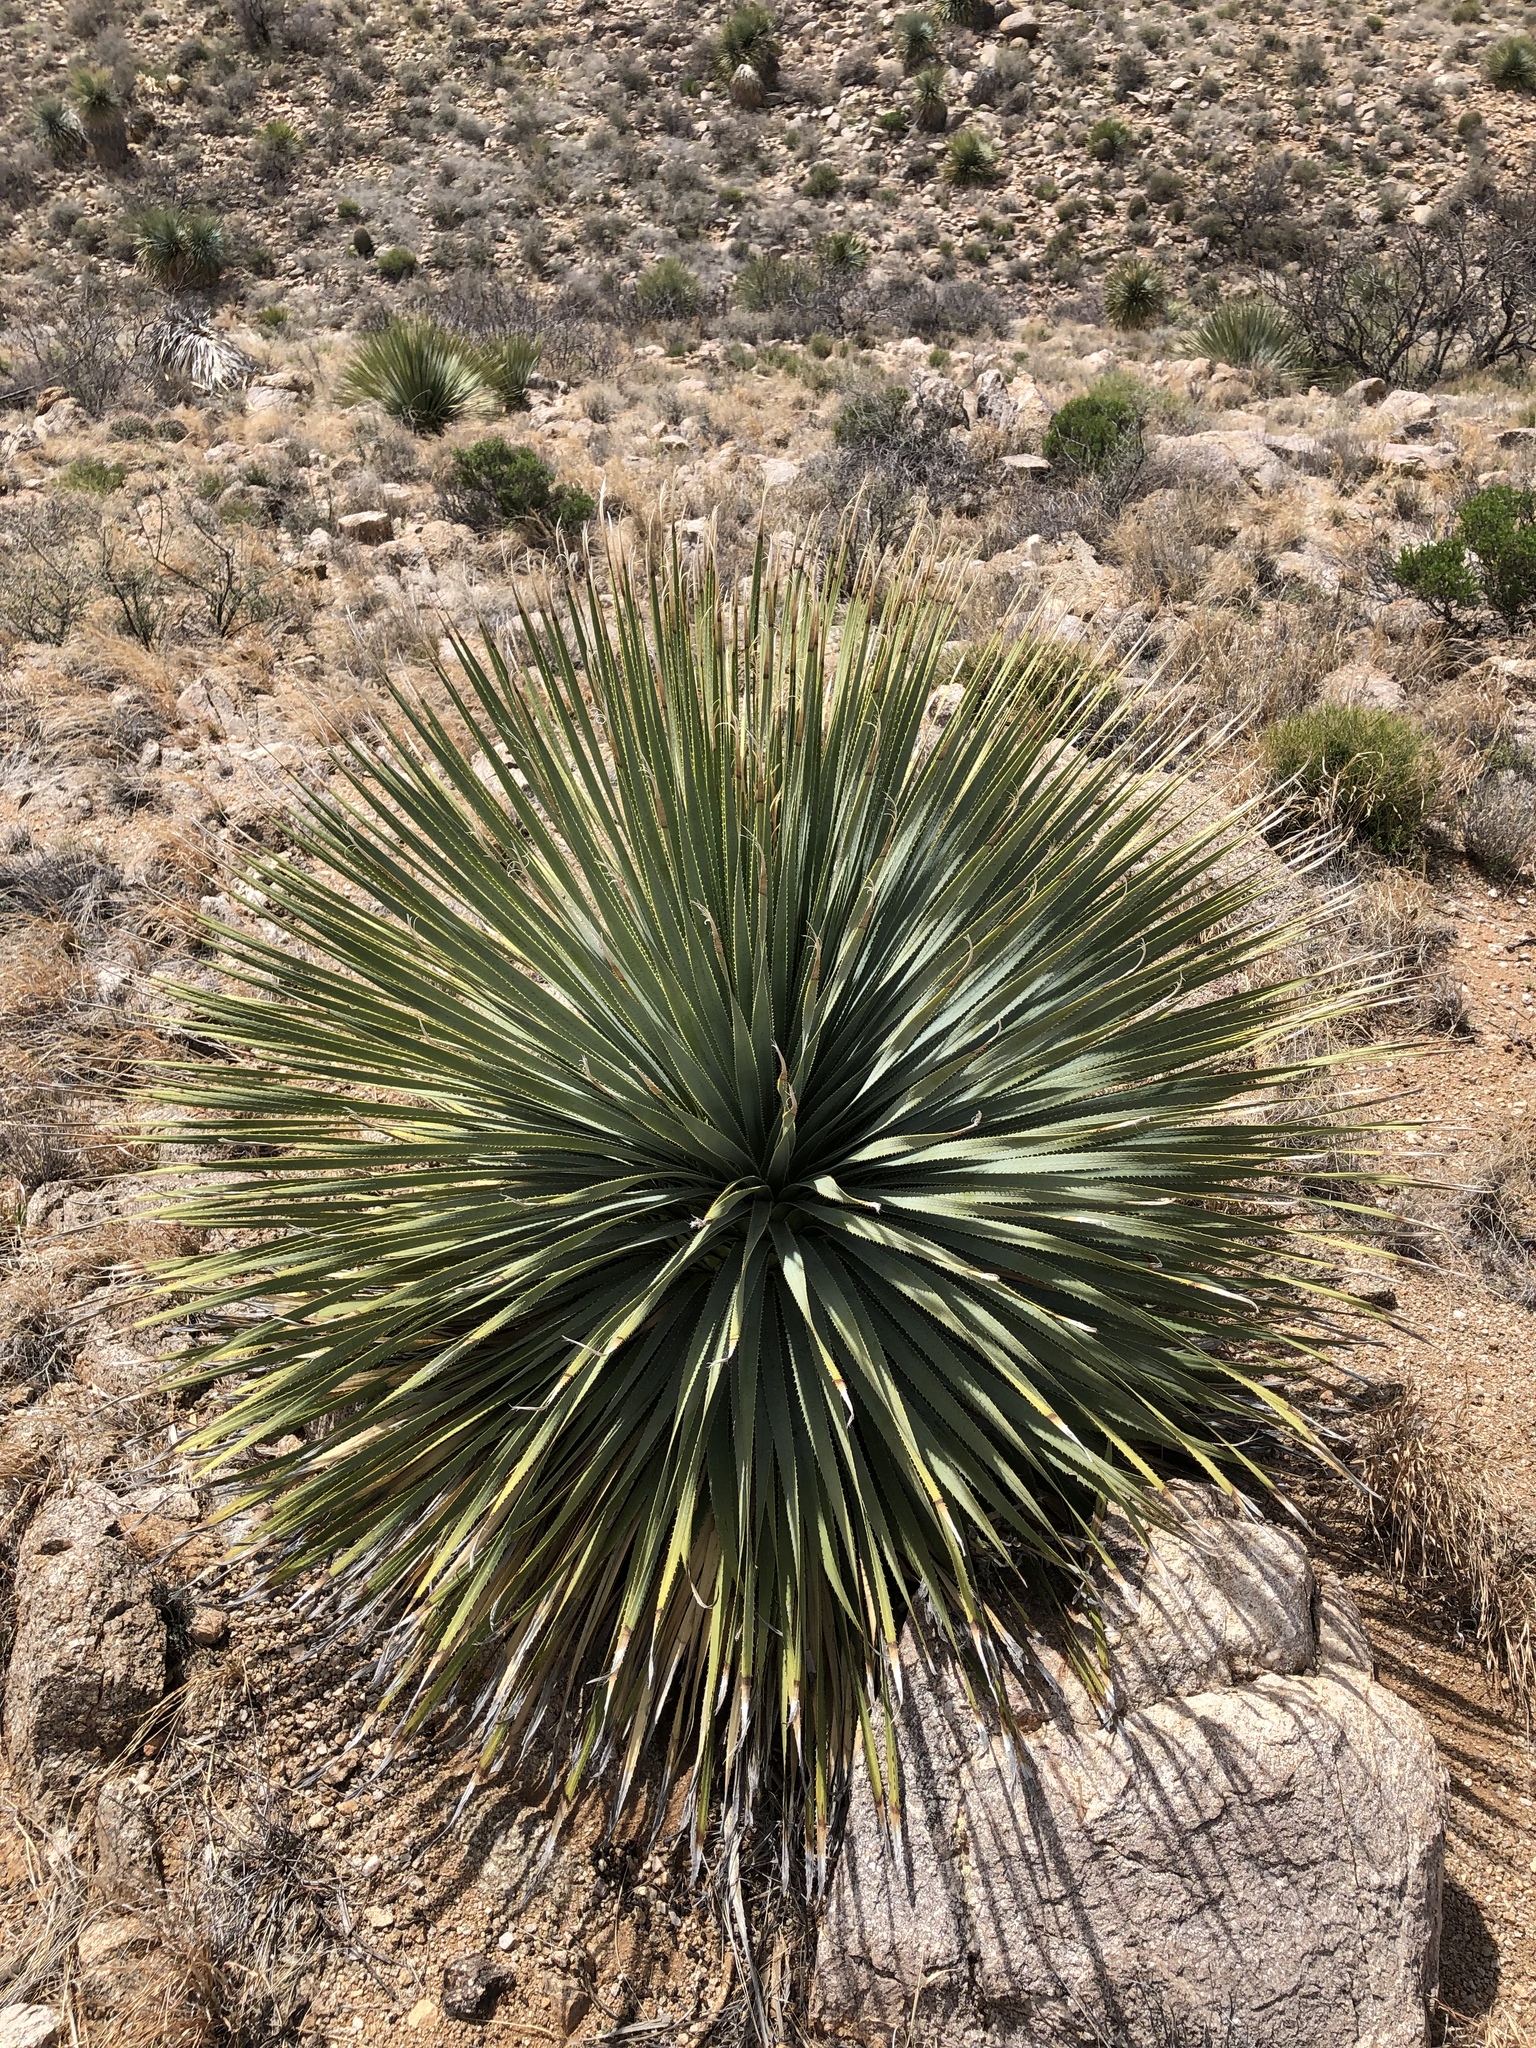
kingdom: Plantae
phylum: Tracheophyta
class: Liliopsida
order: Asparagales
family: Asparagaceae
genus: Dasylirion
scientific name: Dasylirion wheeleri
